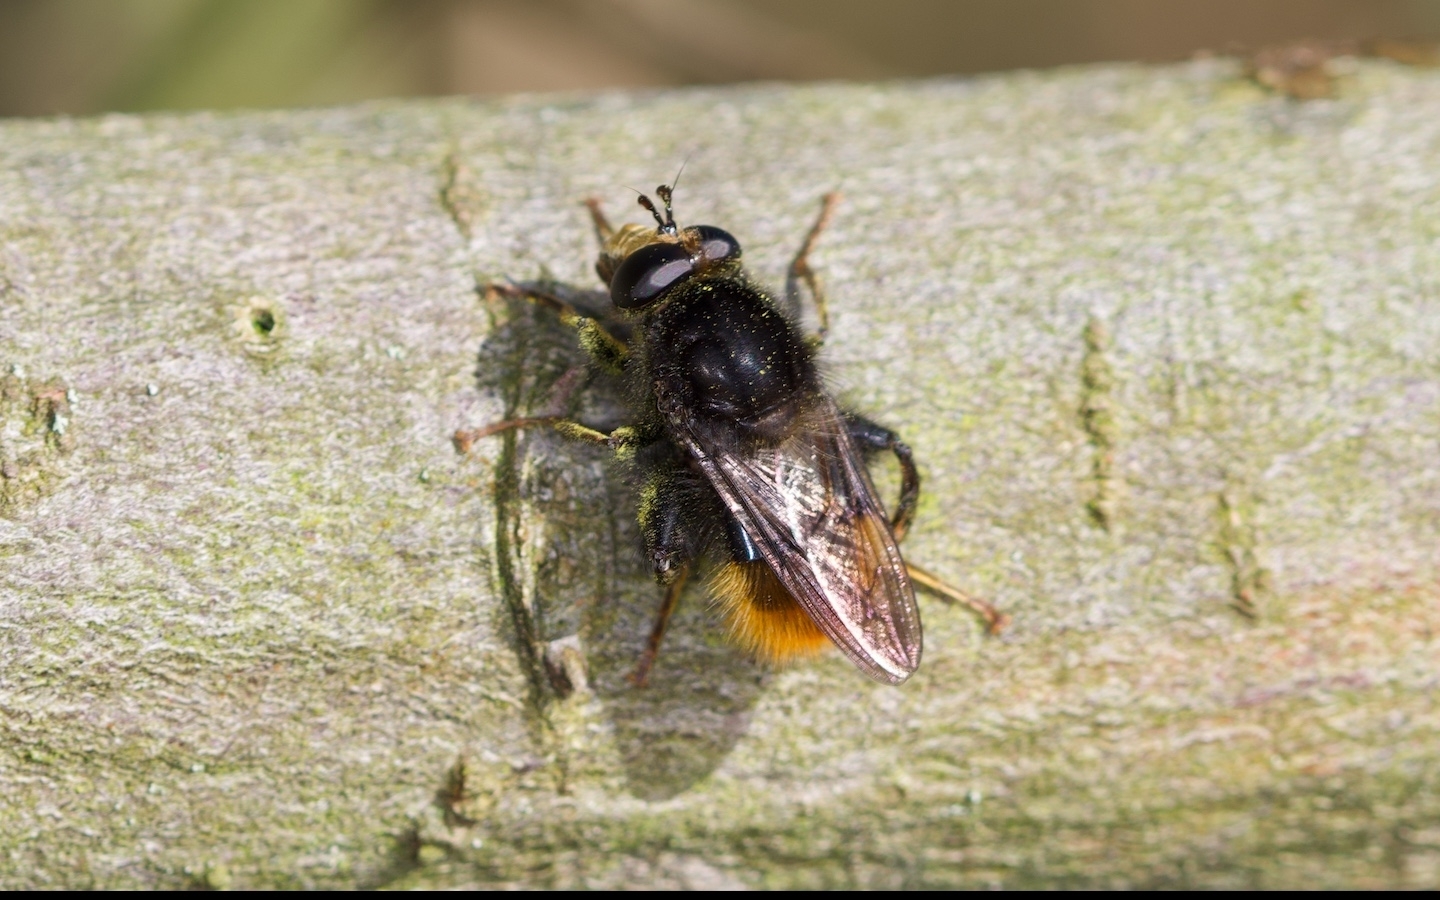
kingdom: Animalia
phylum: Arthropoda
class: Insecta
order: Diptera
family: Syrphidae
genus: Criorhina
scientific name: Criorhina ranunculi
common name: Large bear hoverfly
